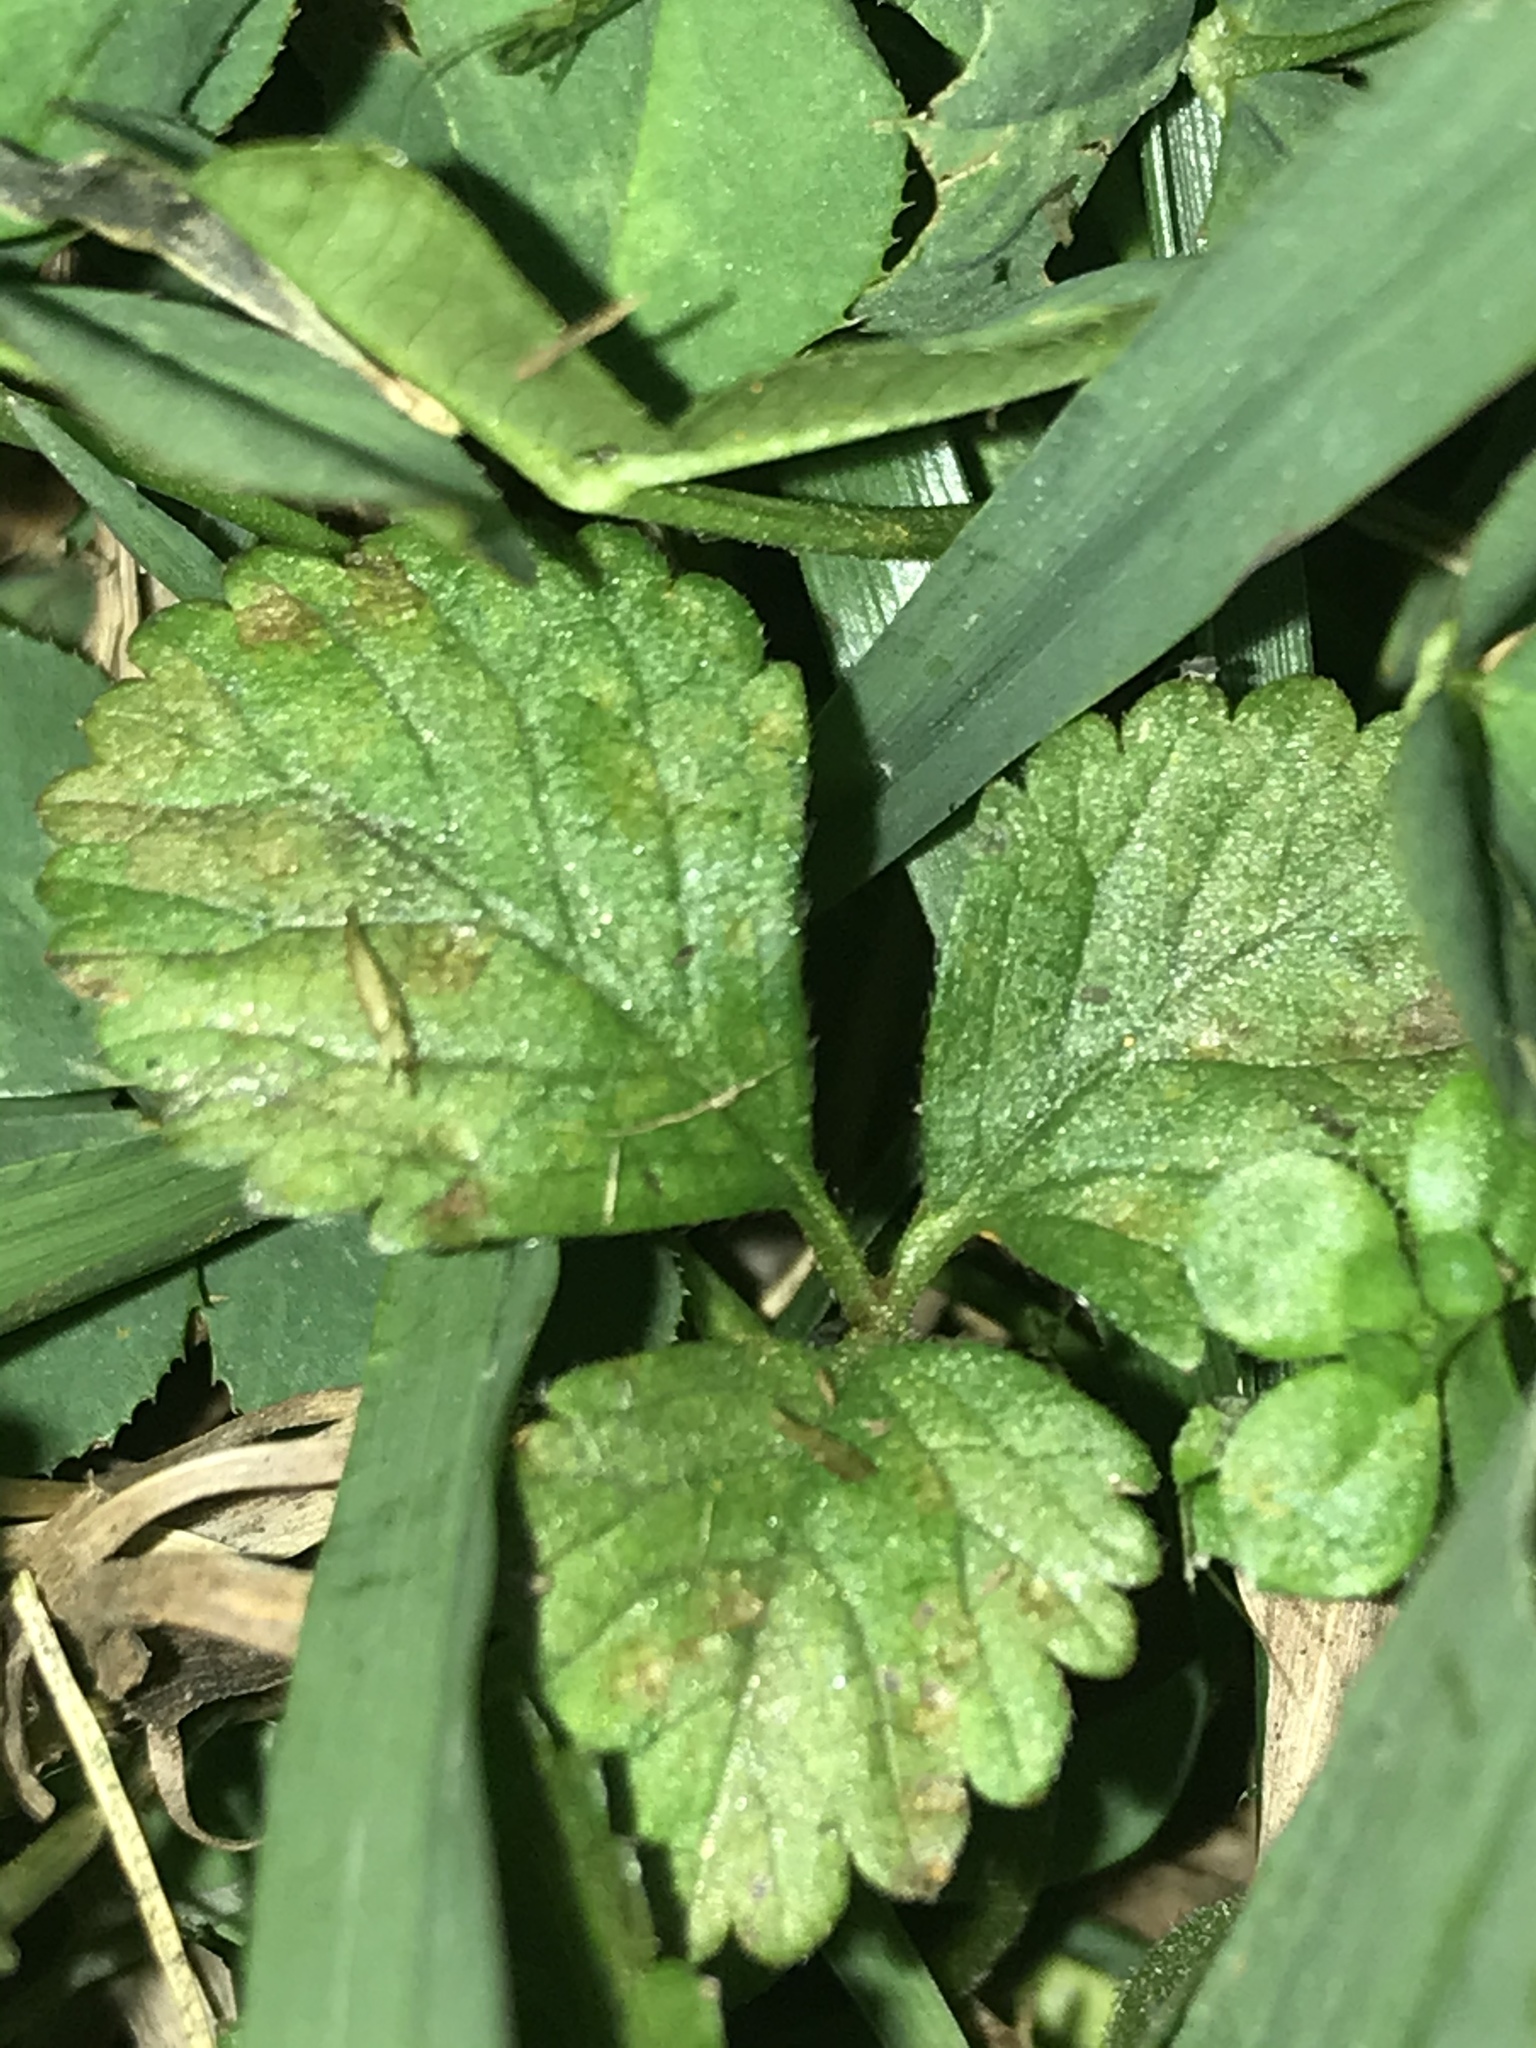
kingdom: Plantae
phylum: Tracheophyta
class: Magnoliopsida
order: Rosales
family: Rosaceae
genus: Potentilla
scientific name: Potentilla indica
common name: Yellow-flowered strawberry
